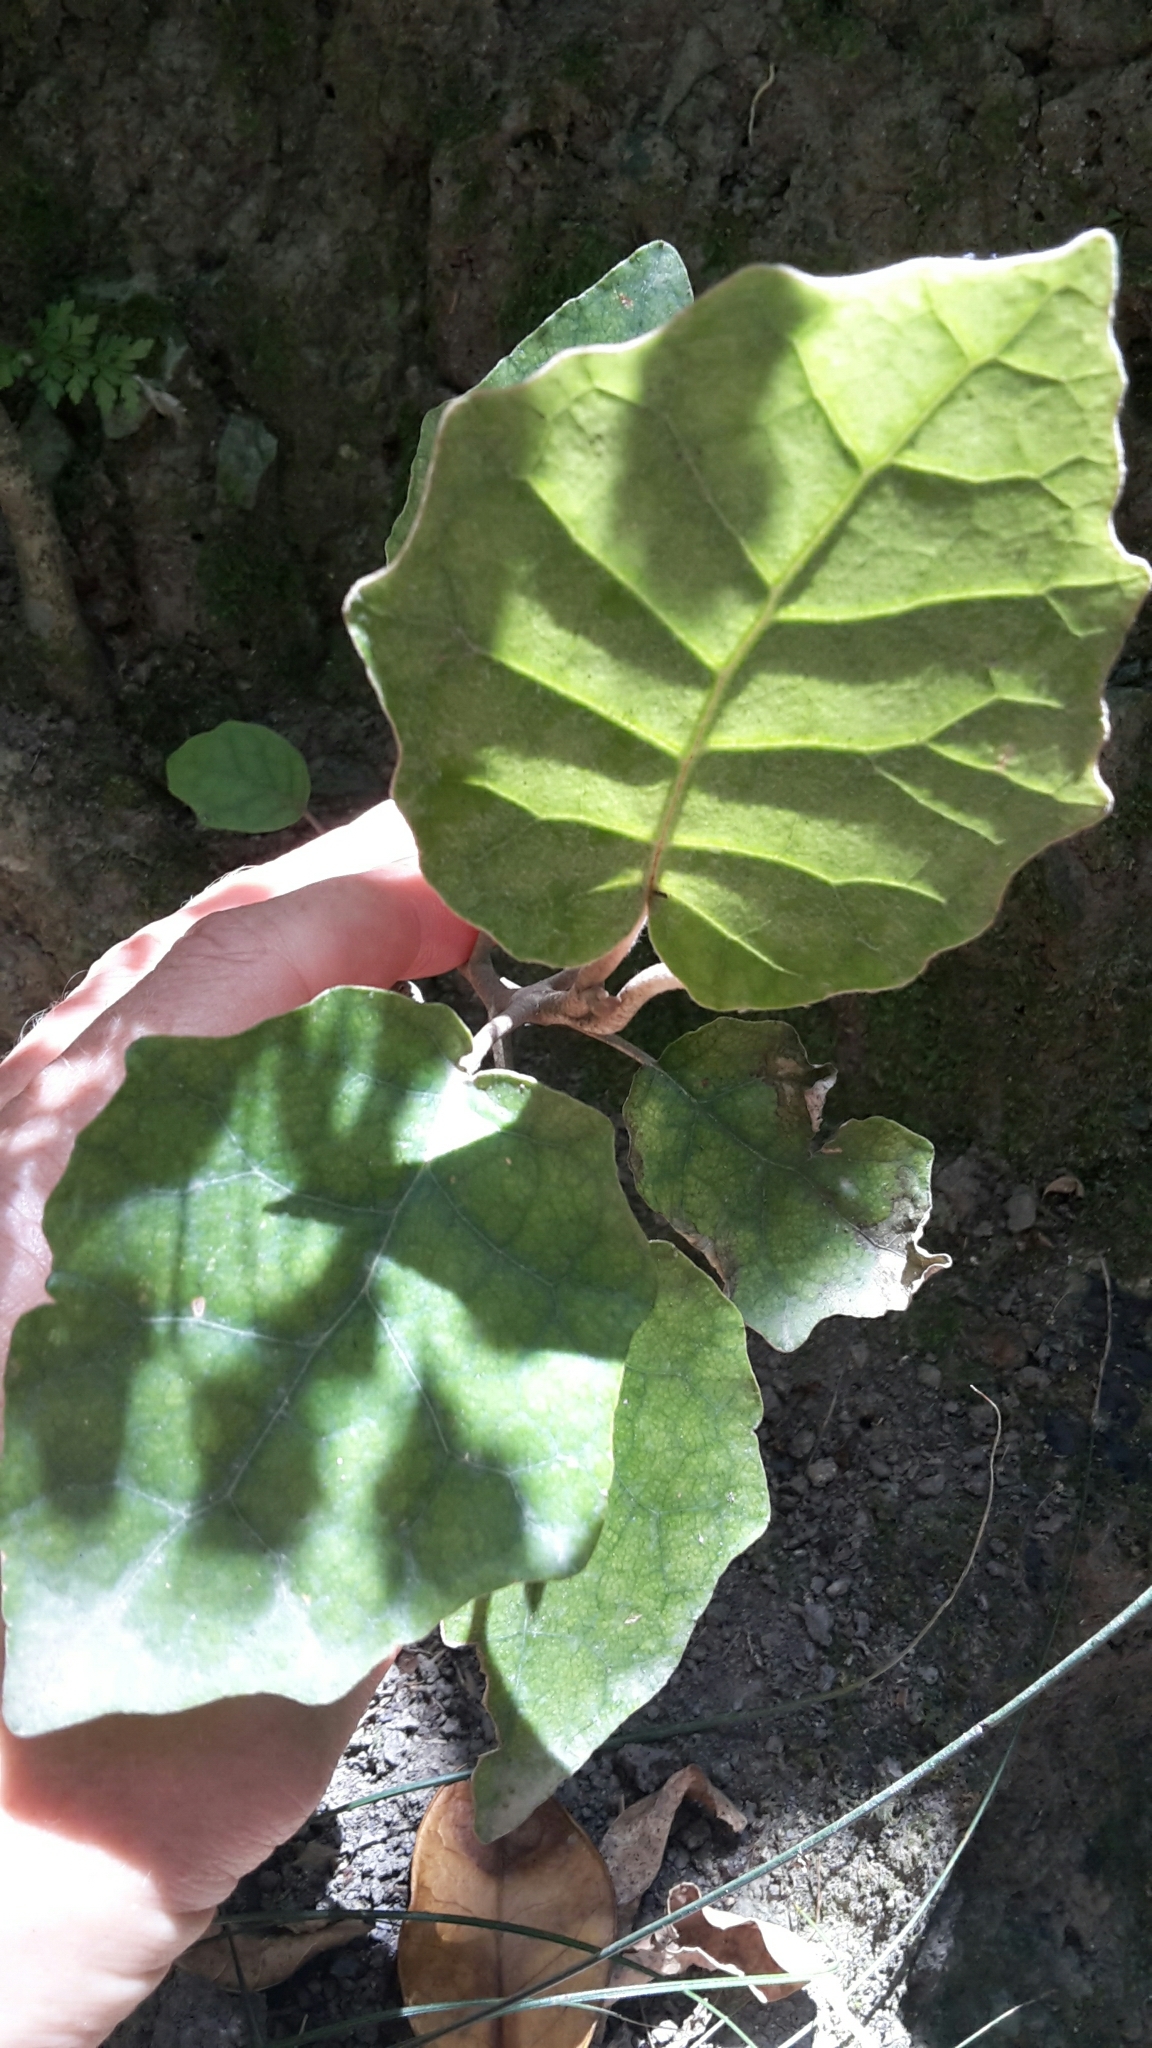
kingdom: Plantae
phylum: Tracheophyta
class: Magnoliopsida
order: Asterales
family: Asteraceae
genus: Brachyglottis
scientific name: Brachyglottis repanda
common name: Hedge ragwort
